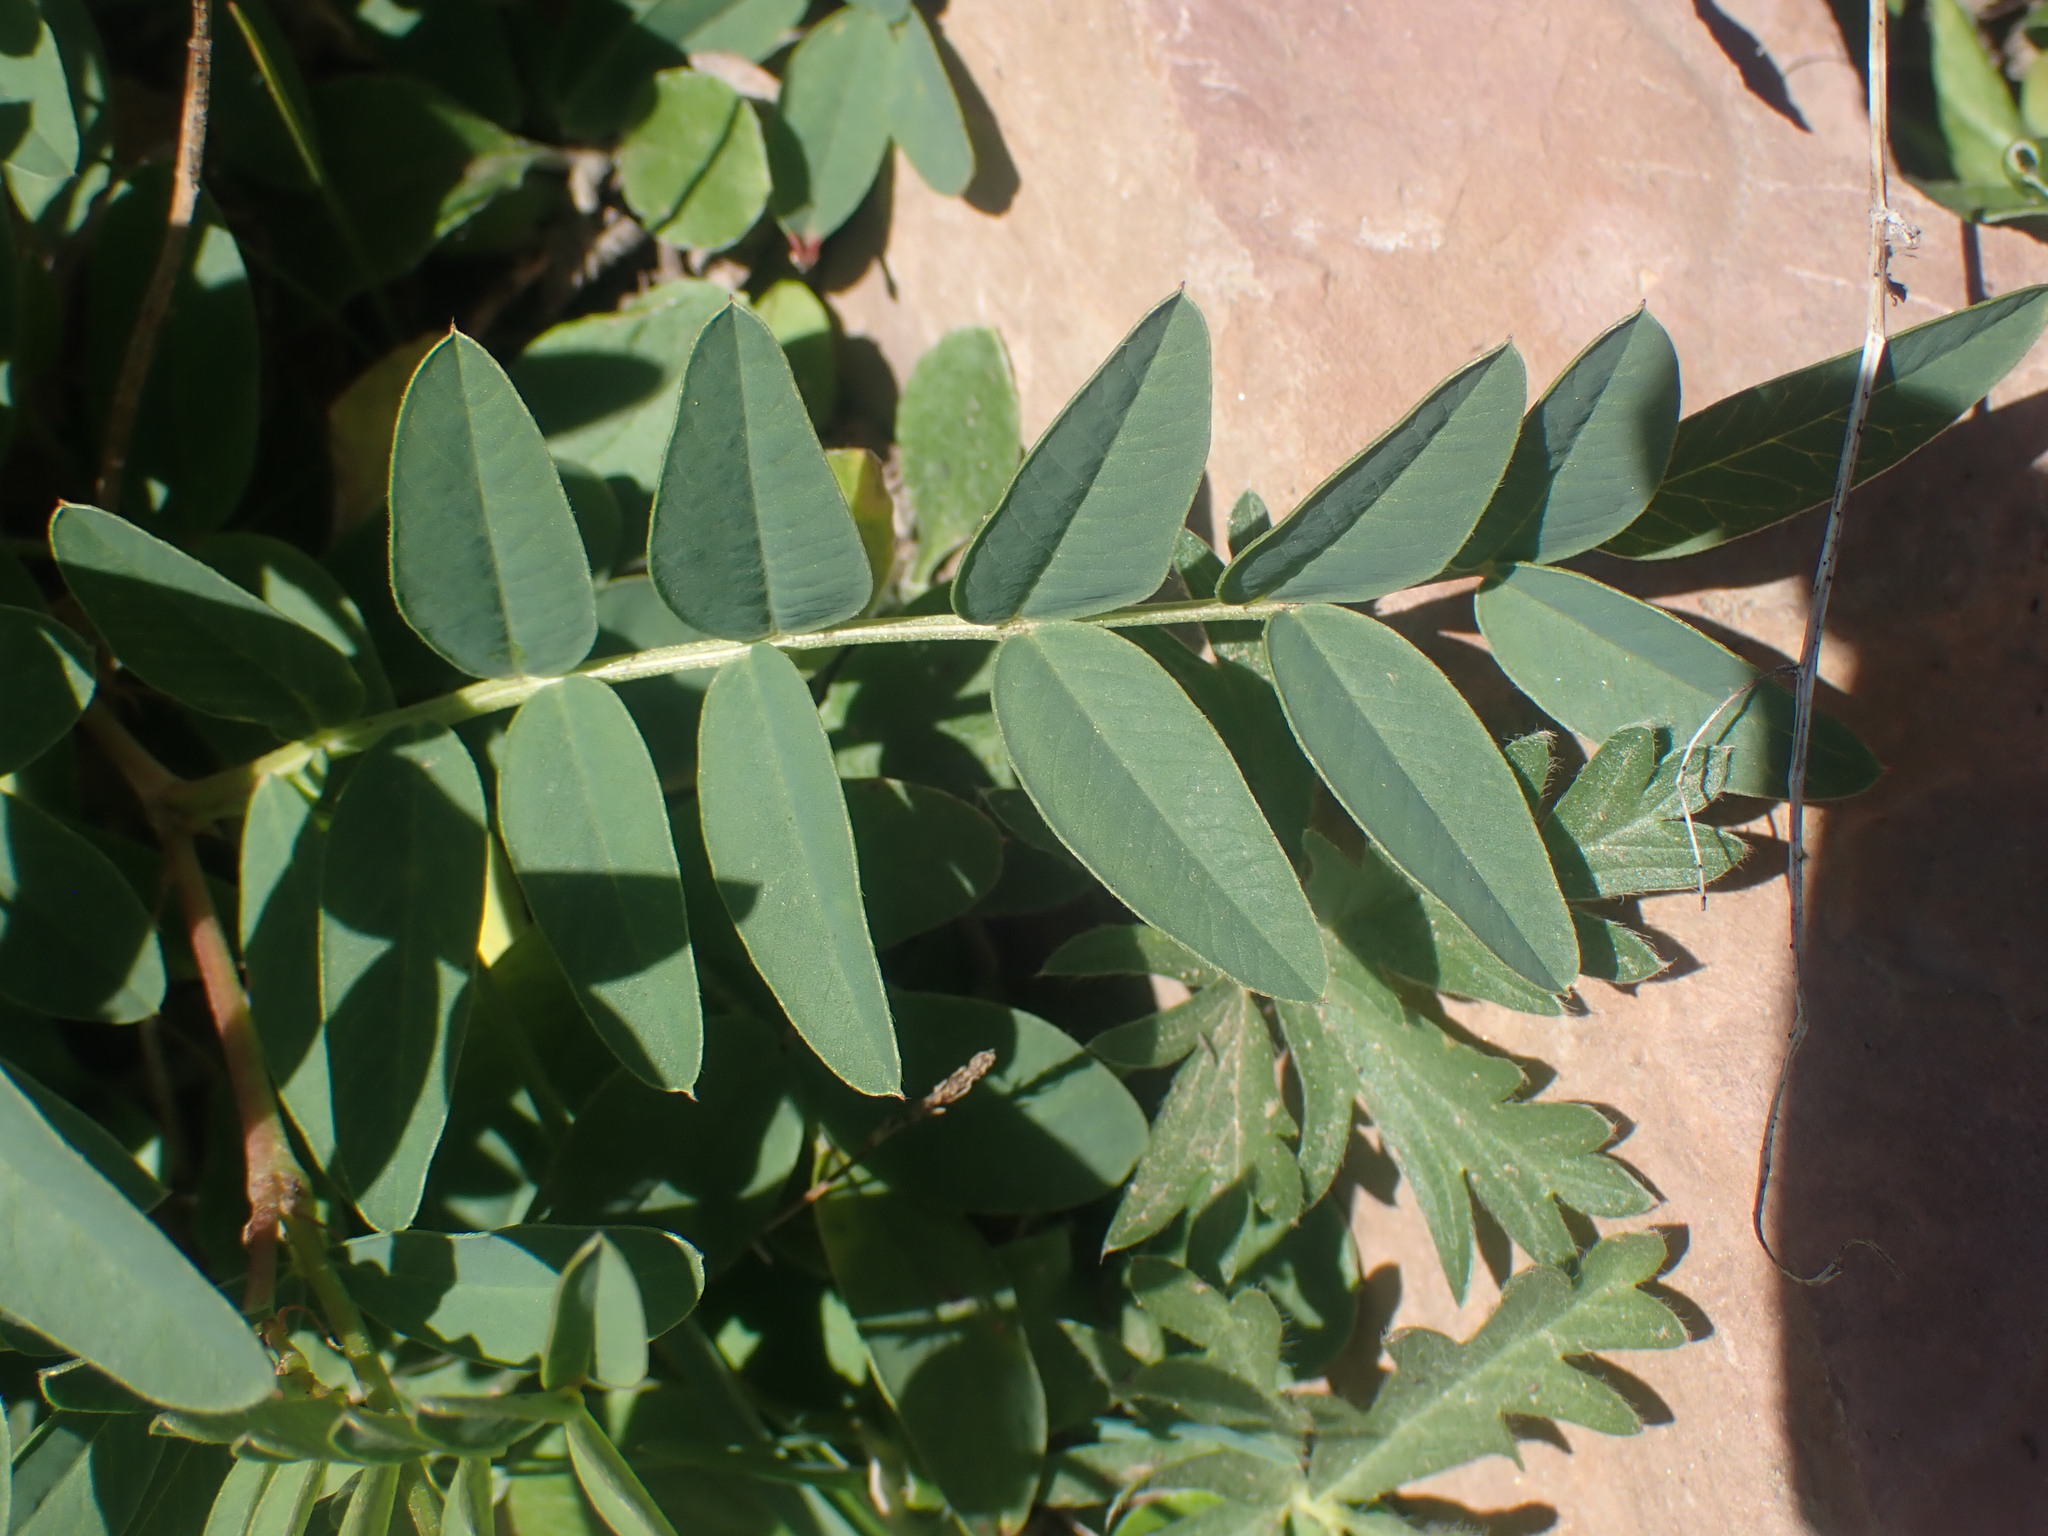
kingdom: Plantae
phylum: Tracheophyta
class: Magnoliopsida
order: Fabales
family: Fabaceae
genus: Hedysarum
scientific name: Hedysarum sulphurescens
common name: Sulphur hedysarum
